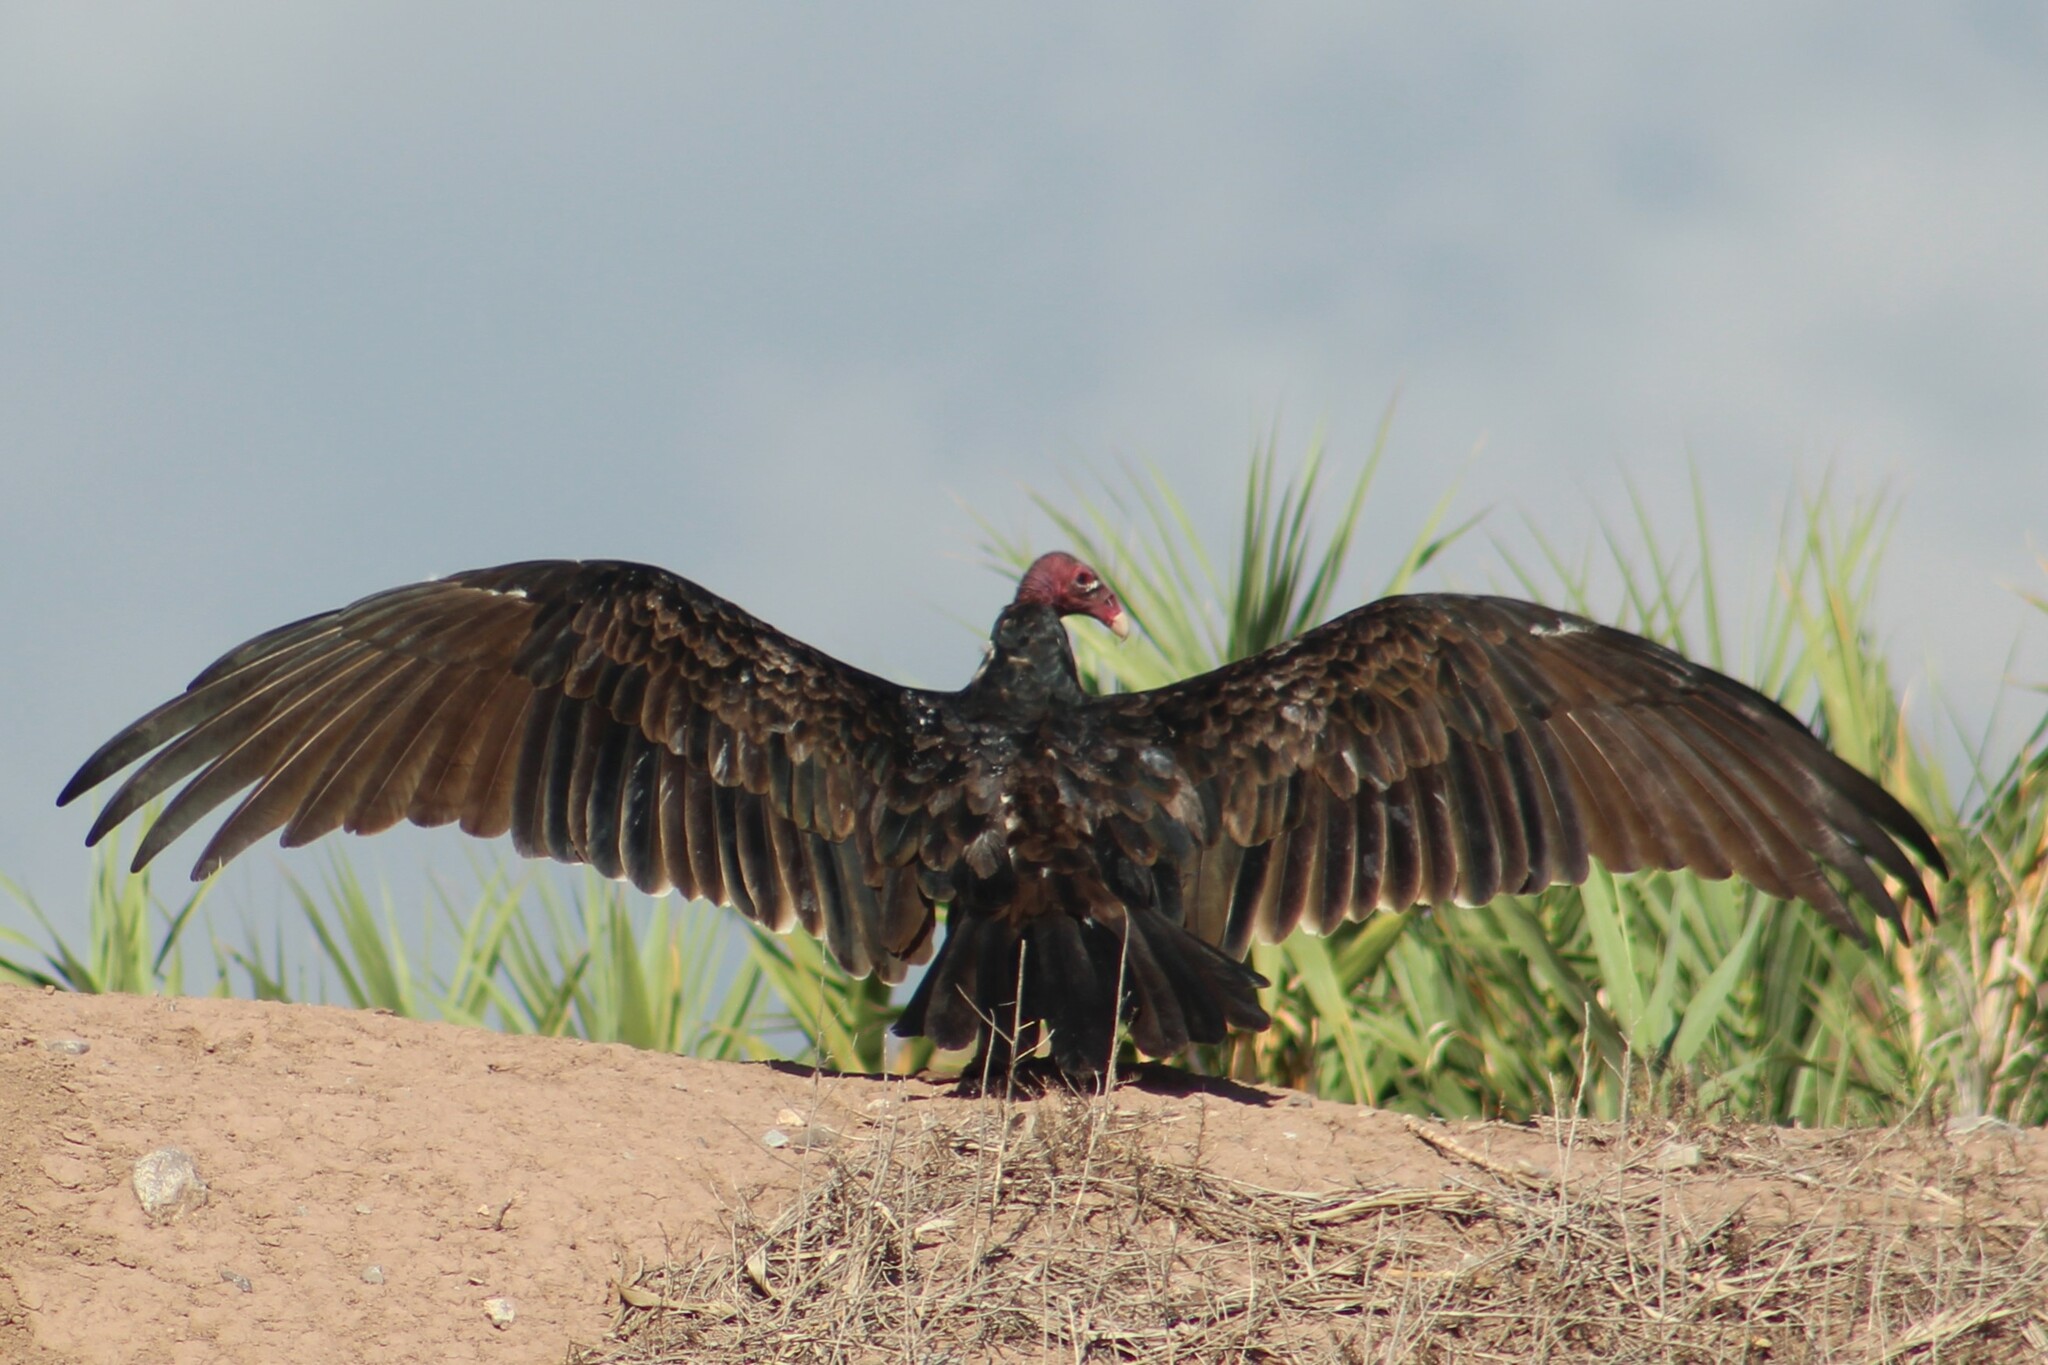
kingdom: Animalia
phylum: Chordata
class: Aves
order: Accipitriformes
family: Cathartidae
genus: Cathartes
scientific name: Cathartes aura
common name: Turkey vulture
